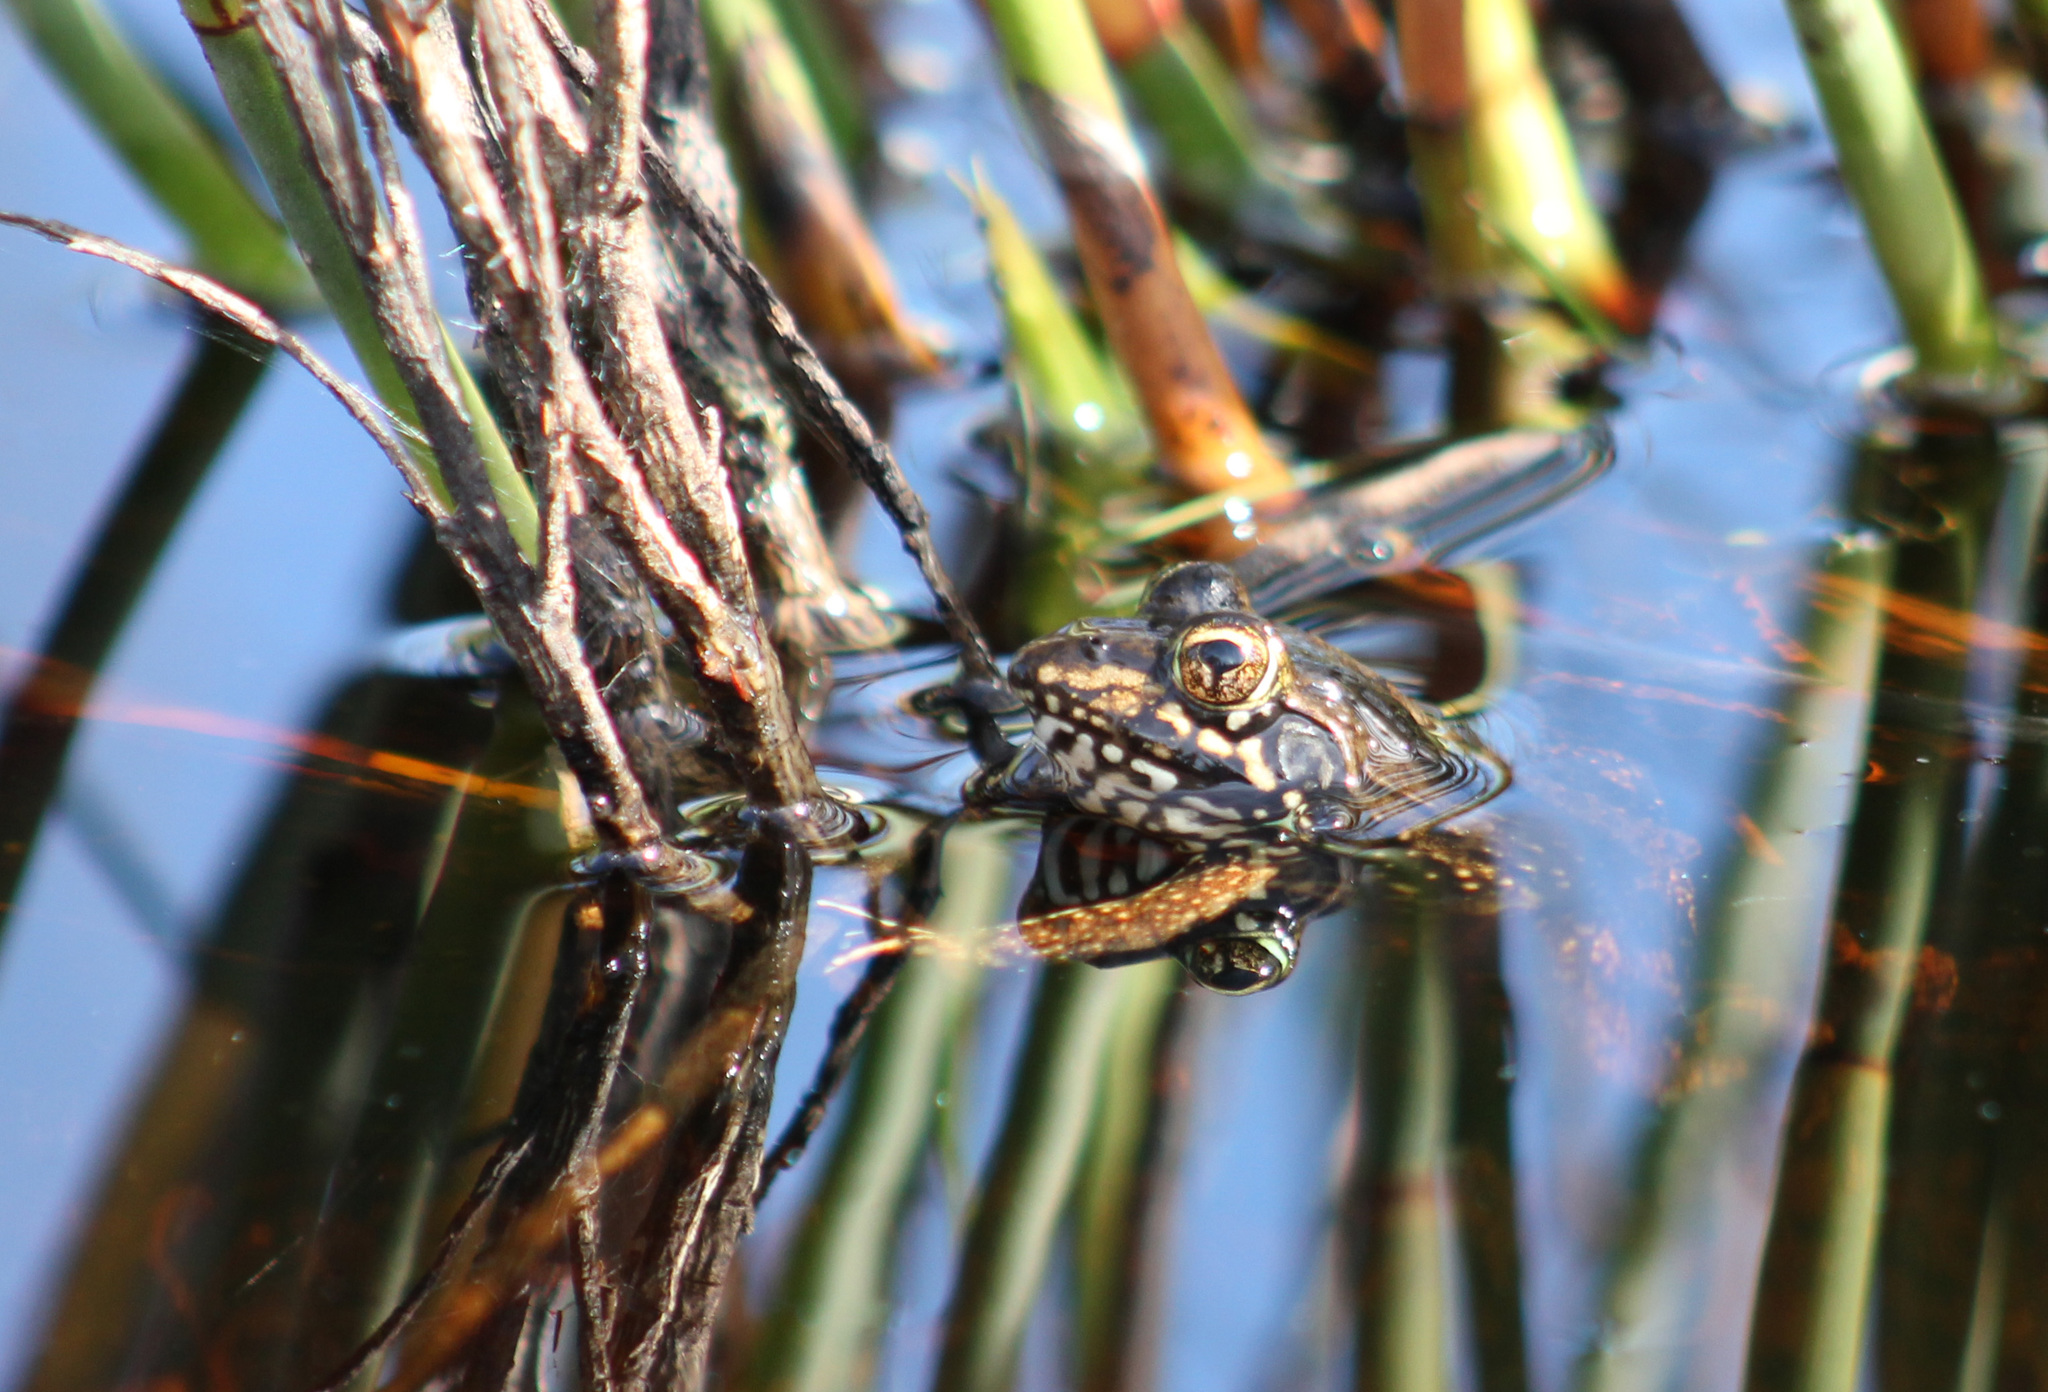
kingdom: Animalia
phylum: Chordata
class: Amphibia
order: Anura
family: Pyxicephalidae
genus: Amietia
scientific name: Amietia fuscigula
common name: Cape rana
